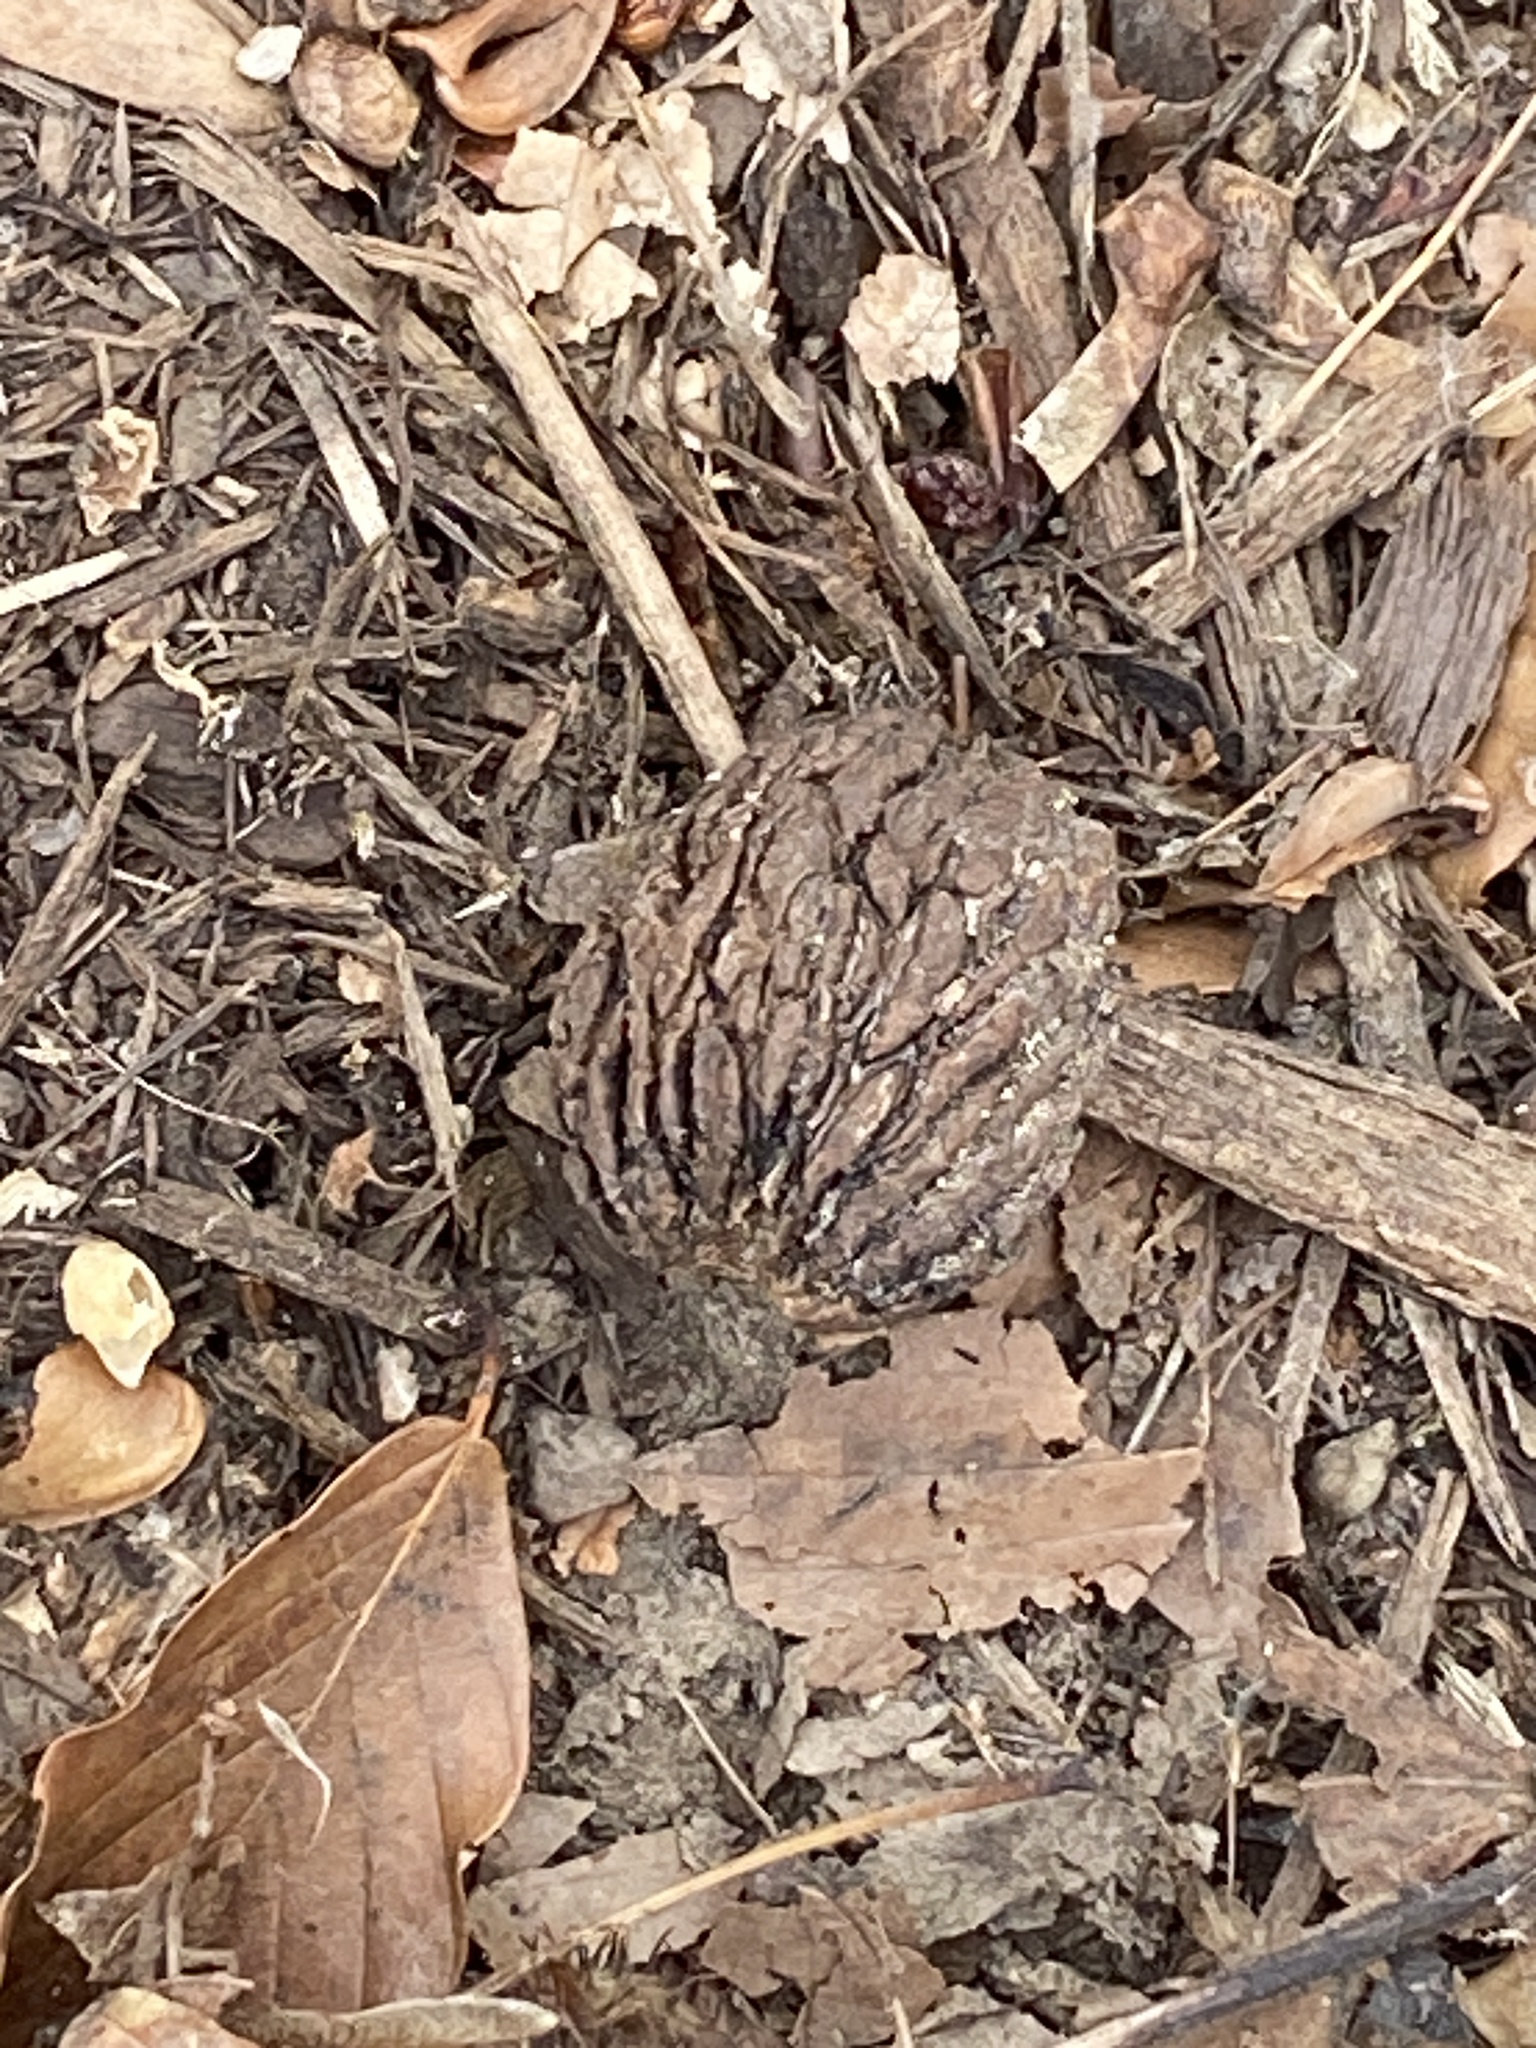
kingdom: Plantae
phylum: Tracheophyta
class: Magnoliopsida
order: Fagales
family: Juglandaceae
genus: Juglans
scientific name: Juglans nigra
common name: Black walnut
